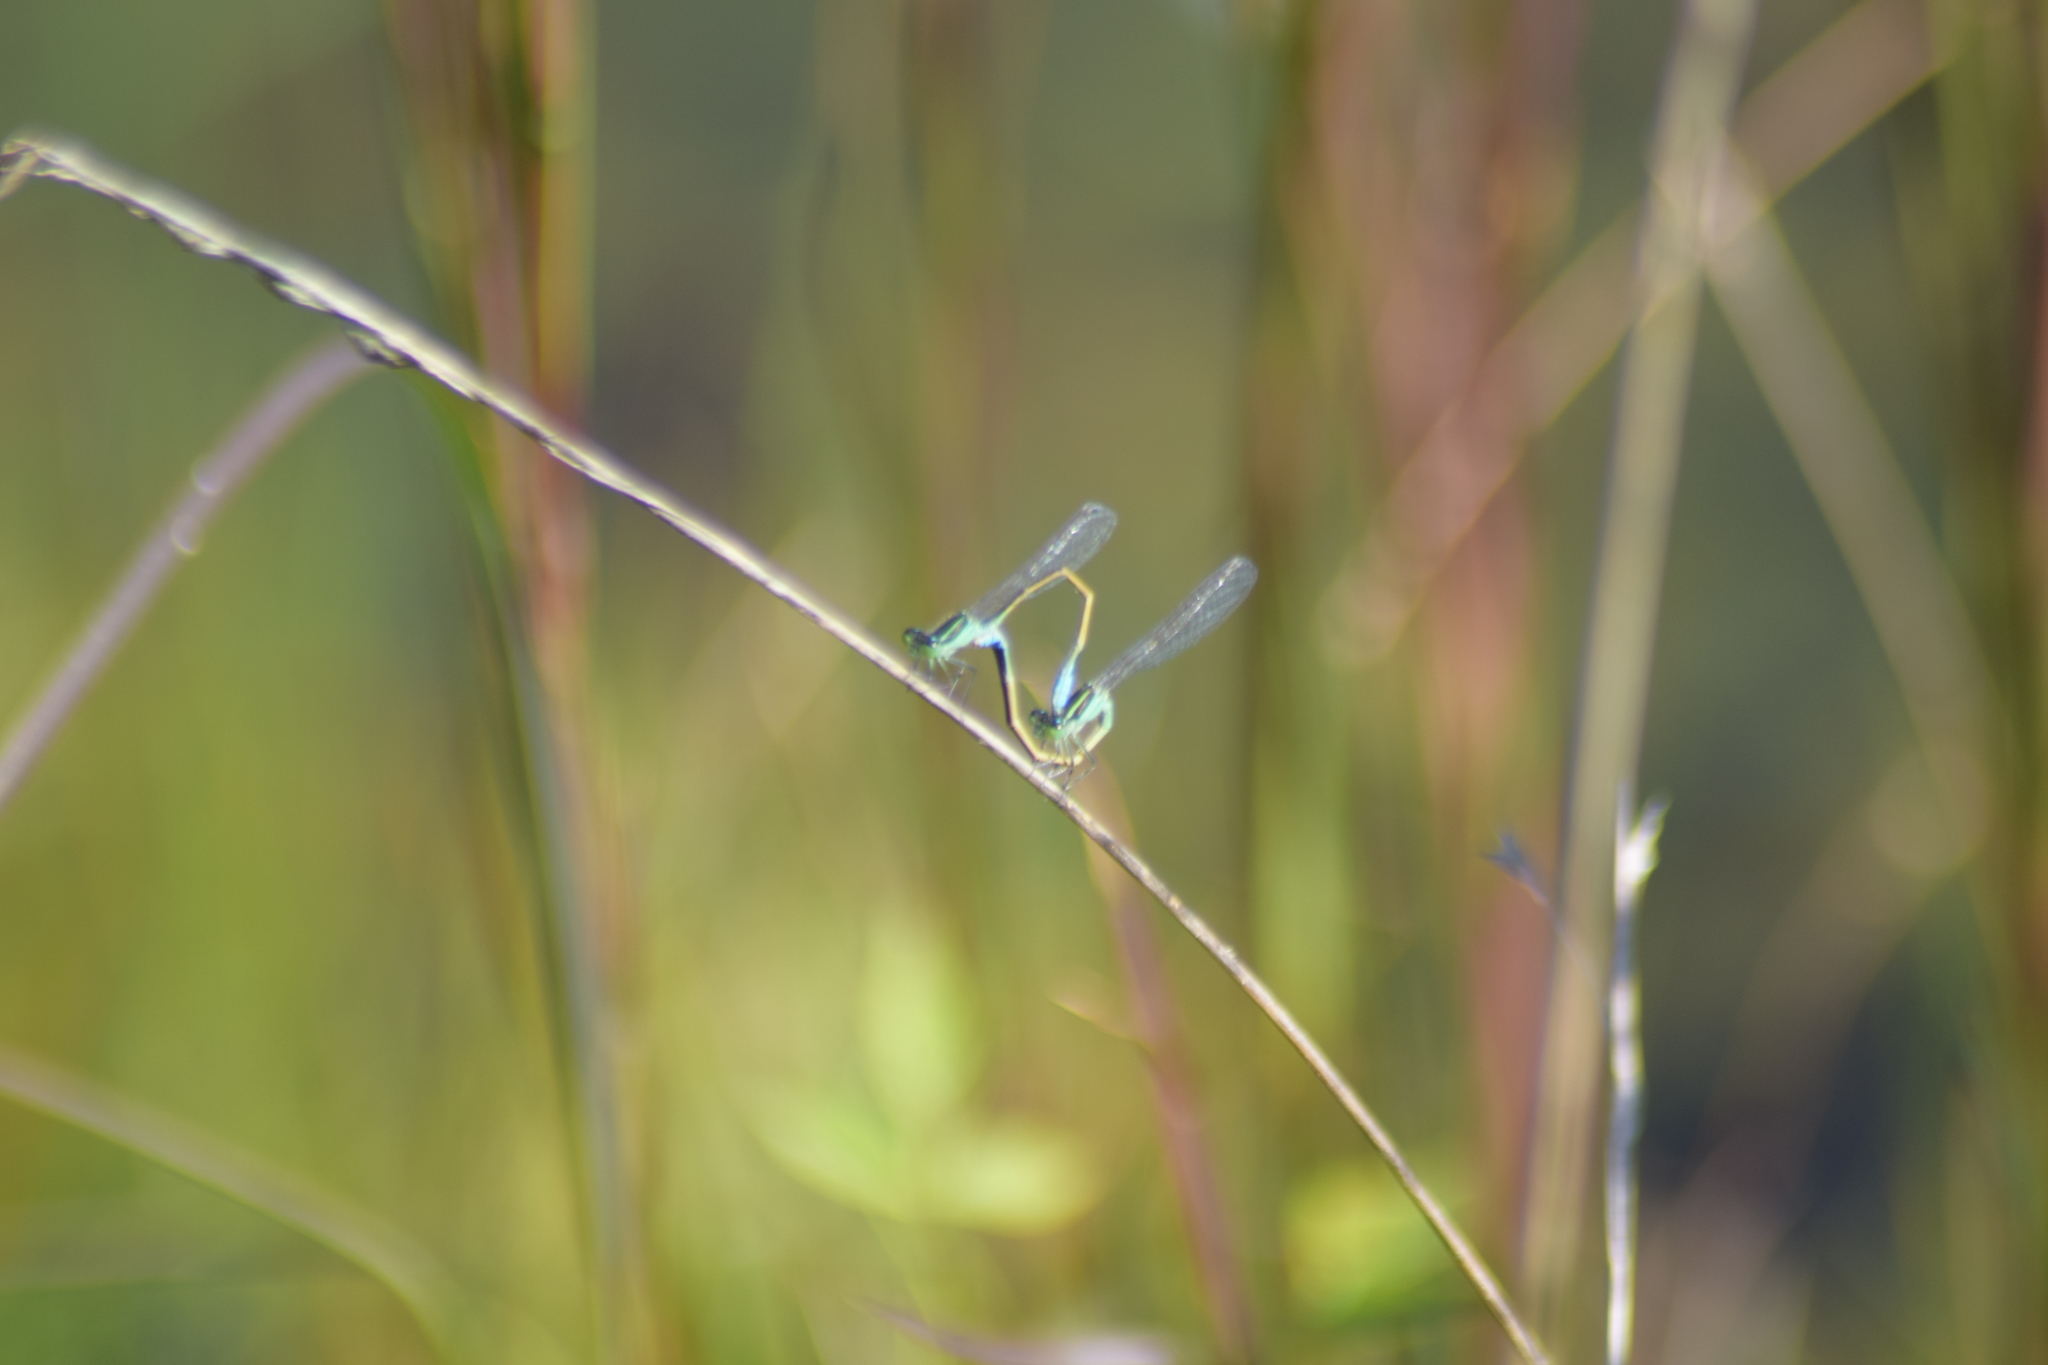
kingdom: Animalia
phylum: Arthropoda
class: Insecta
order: Odonata
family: Coenagrionidae
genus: Ischnura
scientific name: Ischnura ramburii
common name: Rambur's forktail
